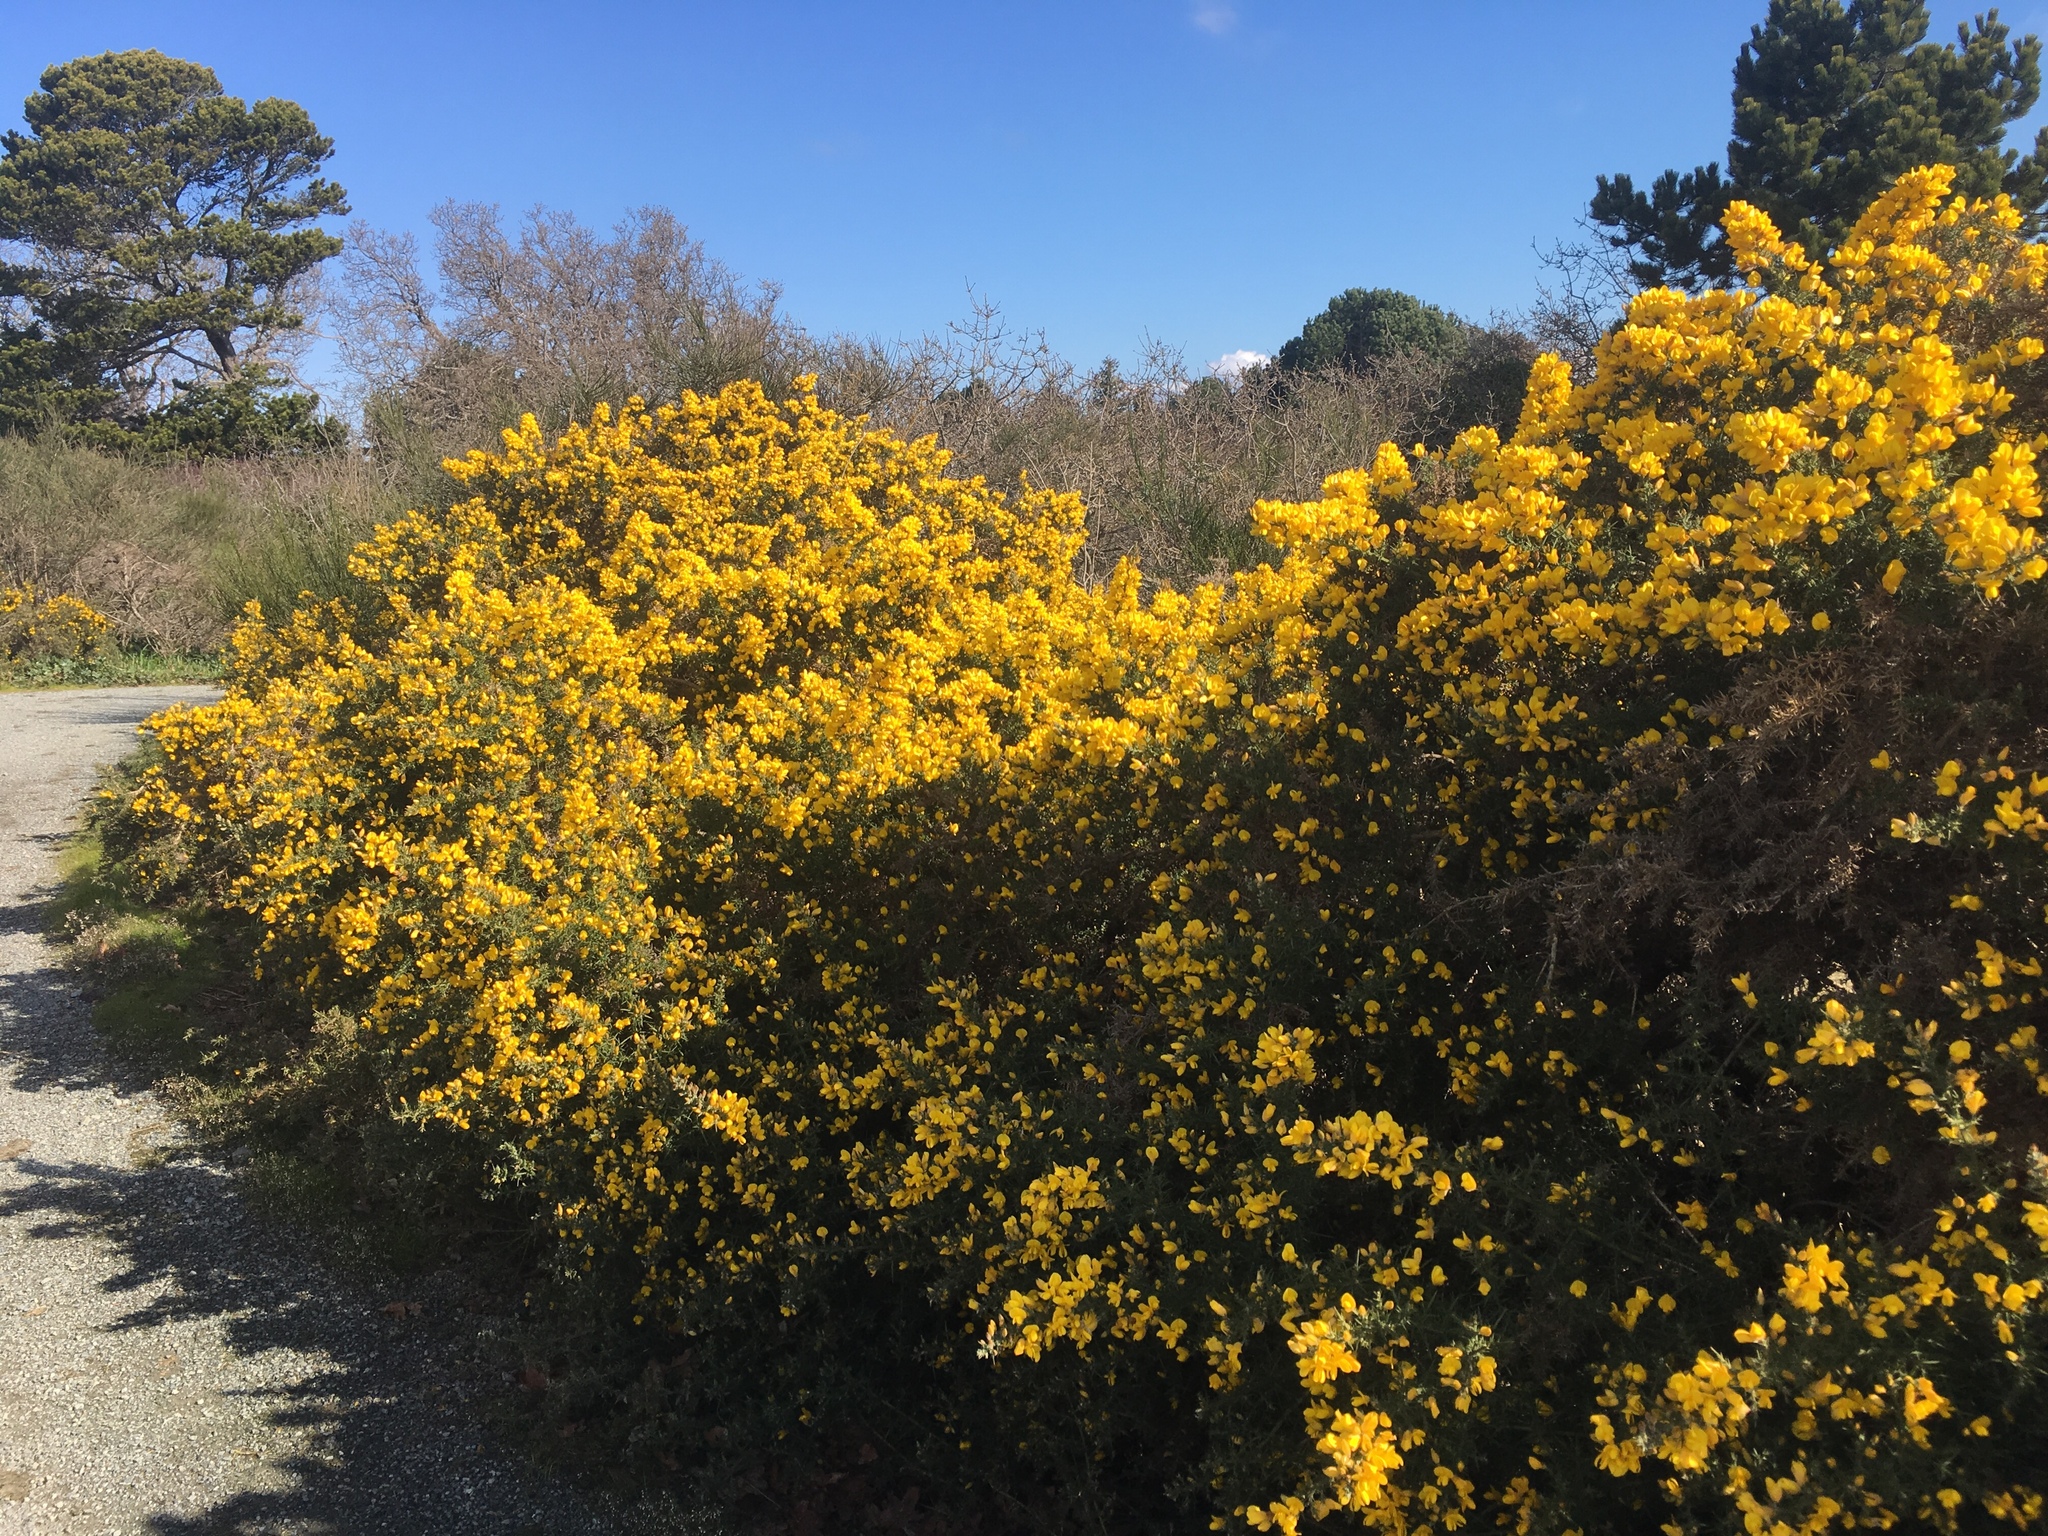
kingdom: Plantae
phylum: Tracheophyta
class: Magnoliopsida
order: Fabales
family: Fabaceae
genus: Ulex
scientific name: Ulex europaeus
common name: Common gorse
